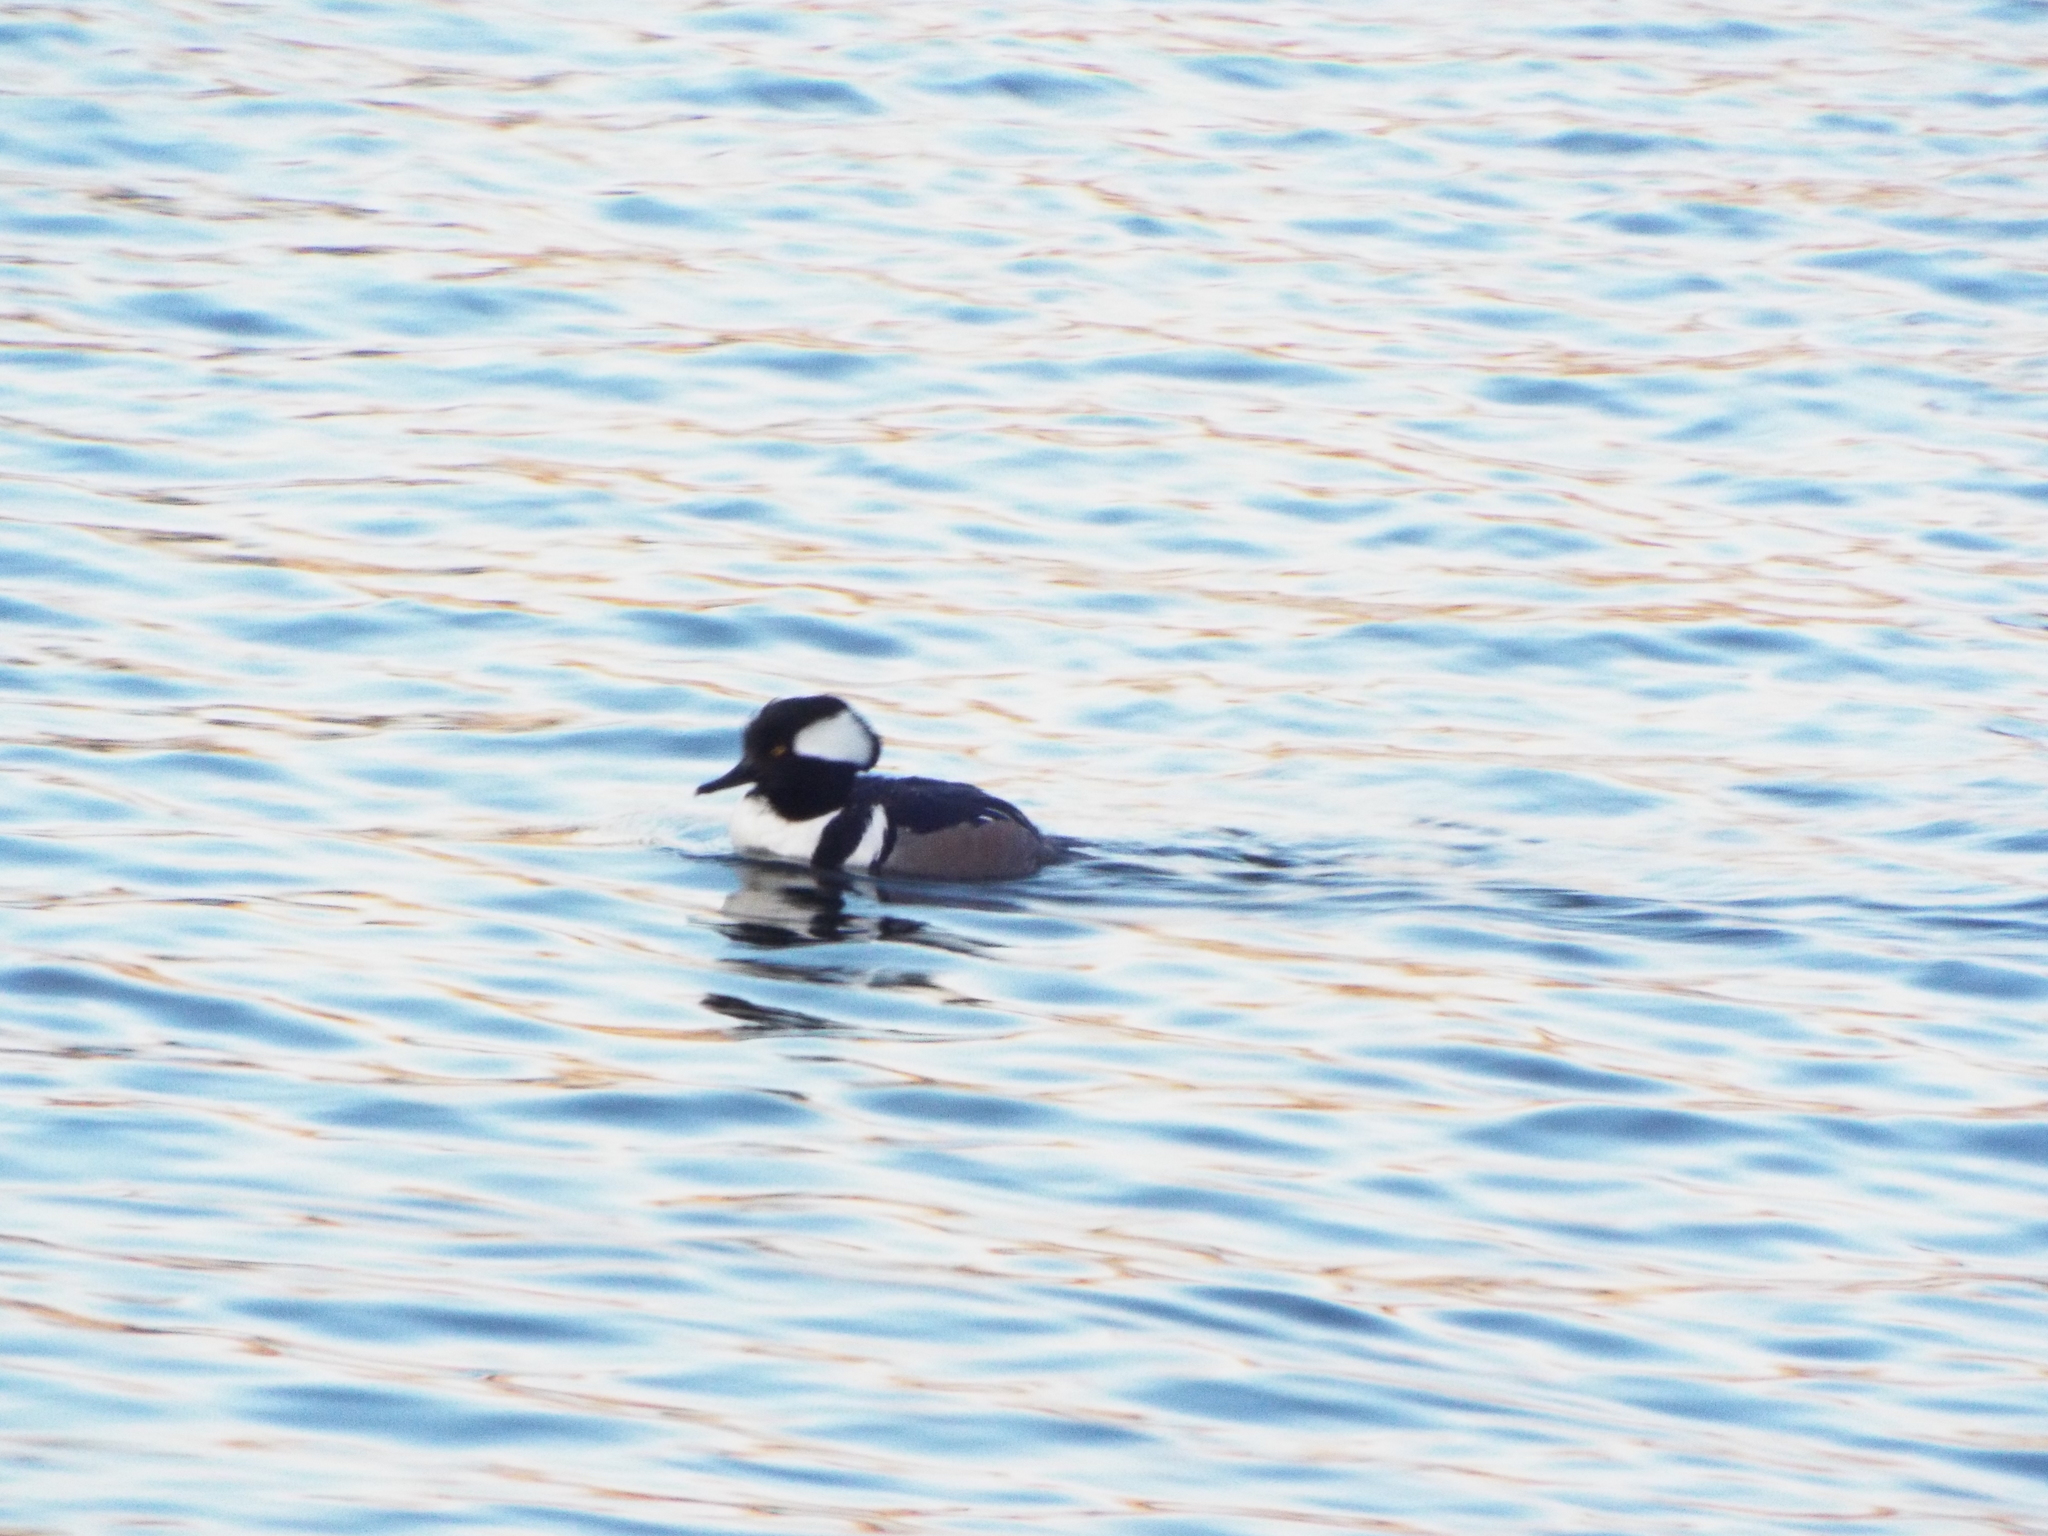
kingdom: Animalia
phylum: Chordata
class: Aves
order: Anseriformes
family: Anatidae
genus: Lophodytes
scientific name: Lophodytes cucullatus
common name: Hooded merganser
